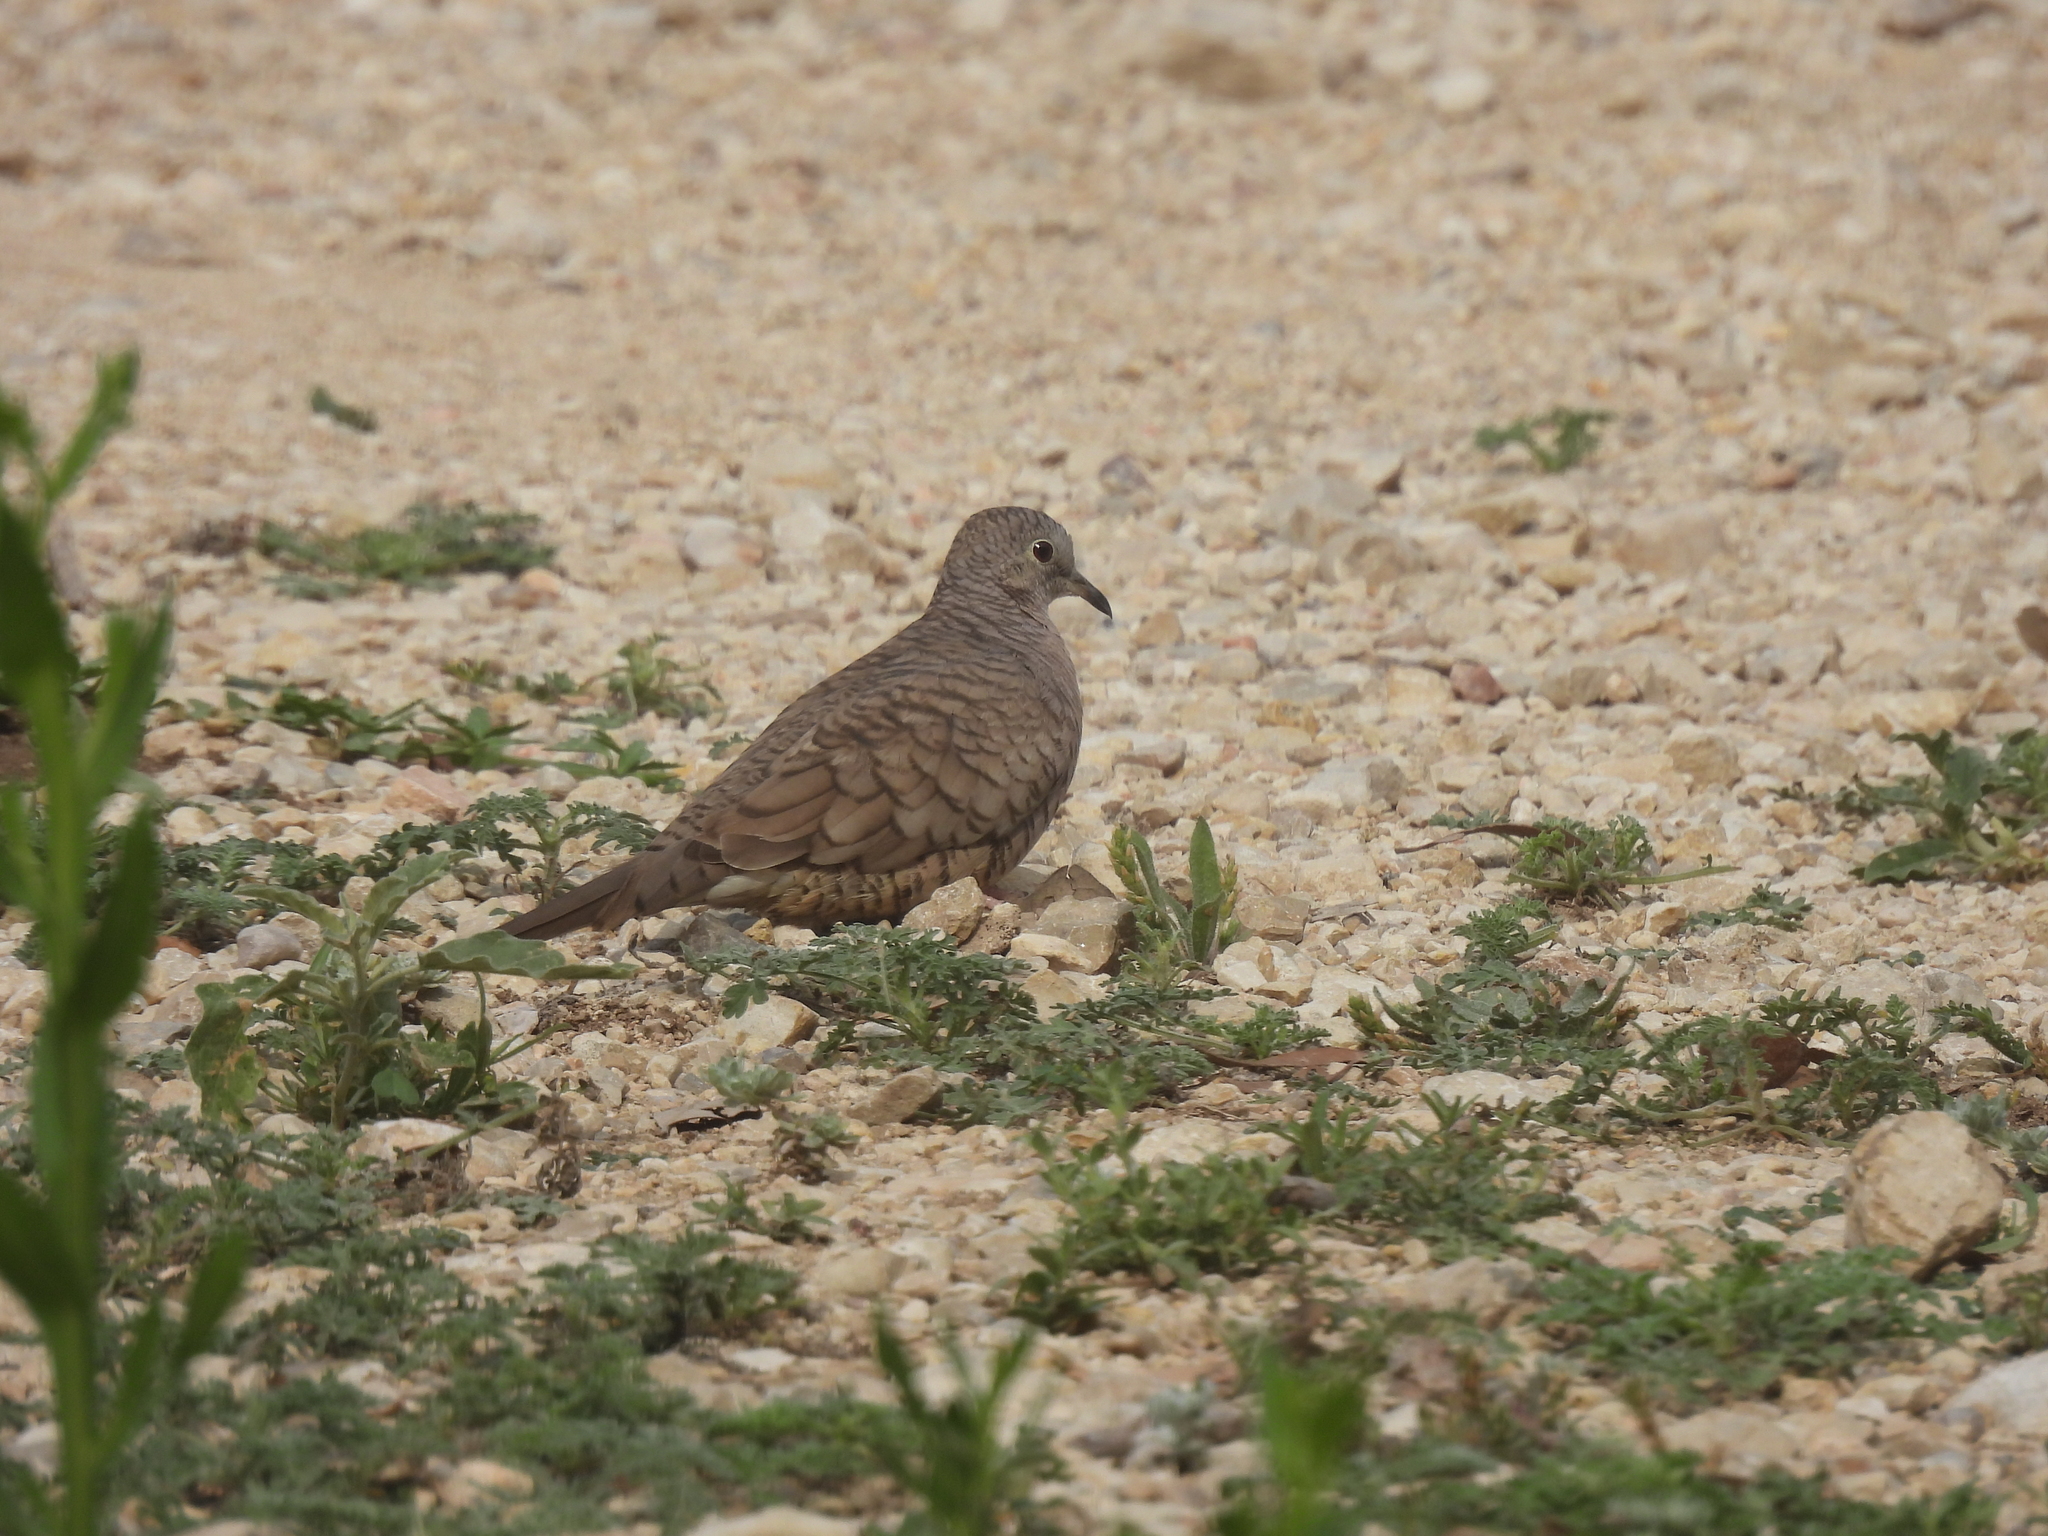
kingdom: Animalia
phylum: Chordata
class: Aves
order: Columbiformes
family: Columbidae
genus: Columbina
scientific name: Columbina inca
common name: Inca dove
